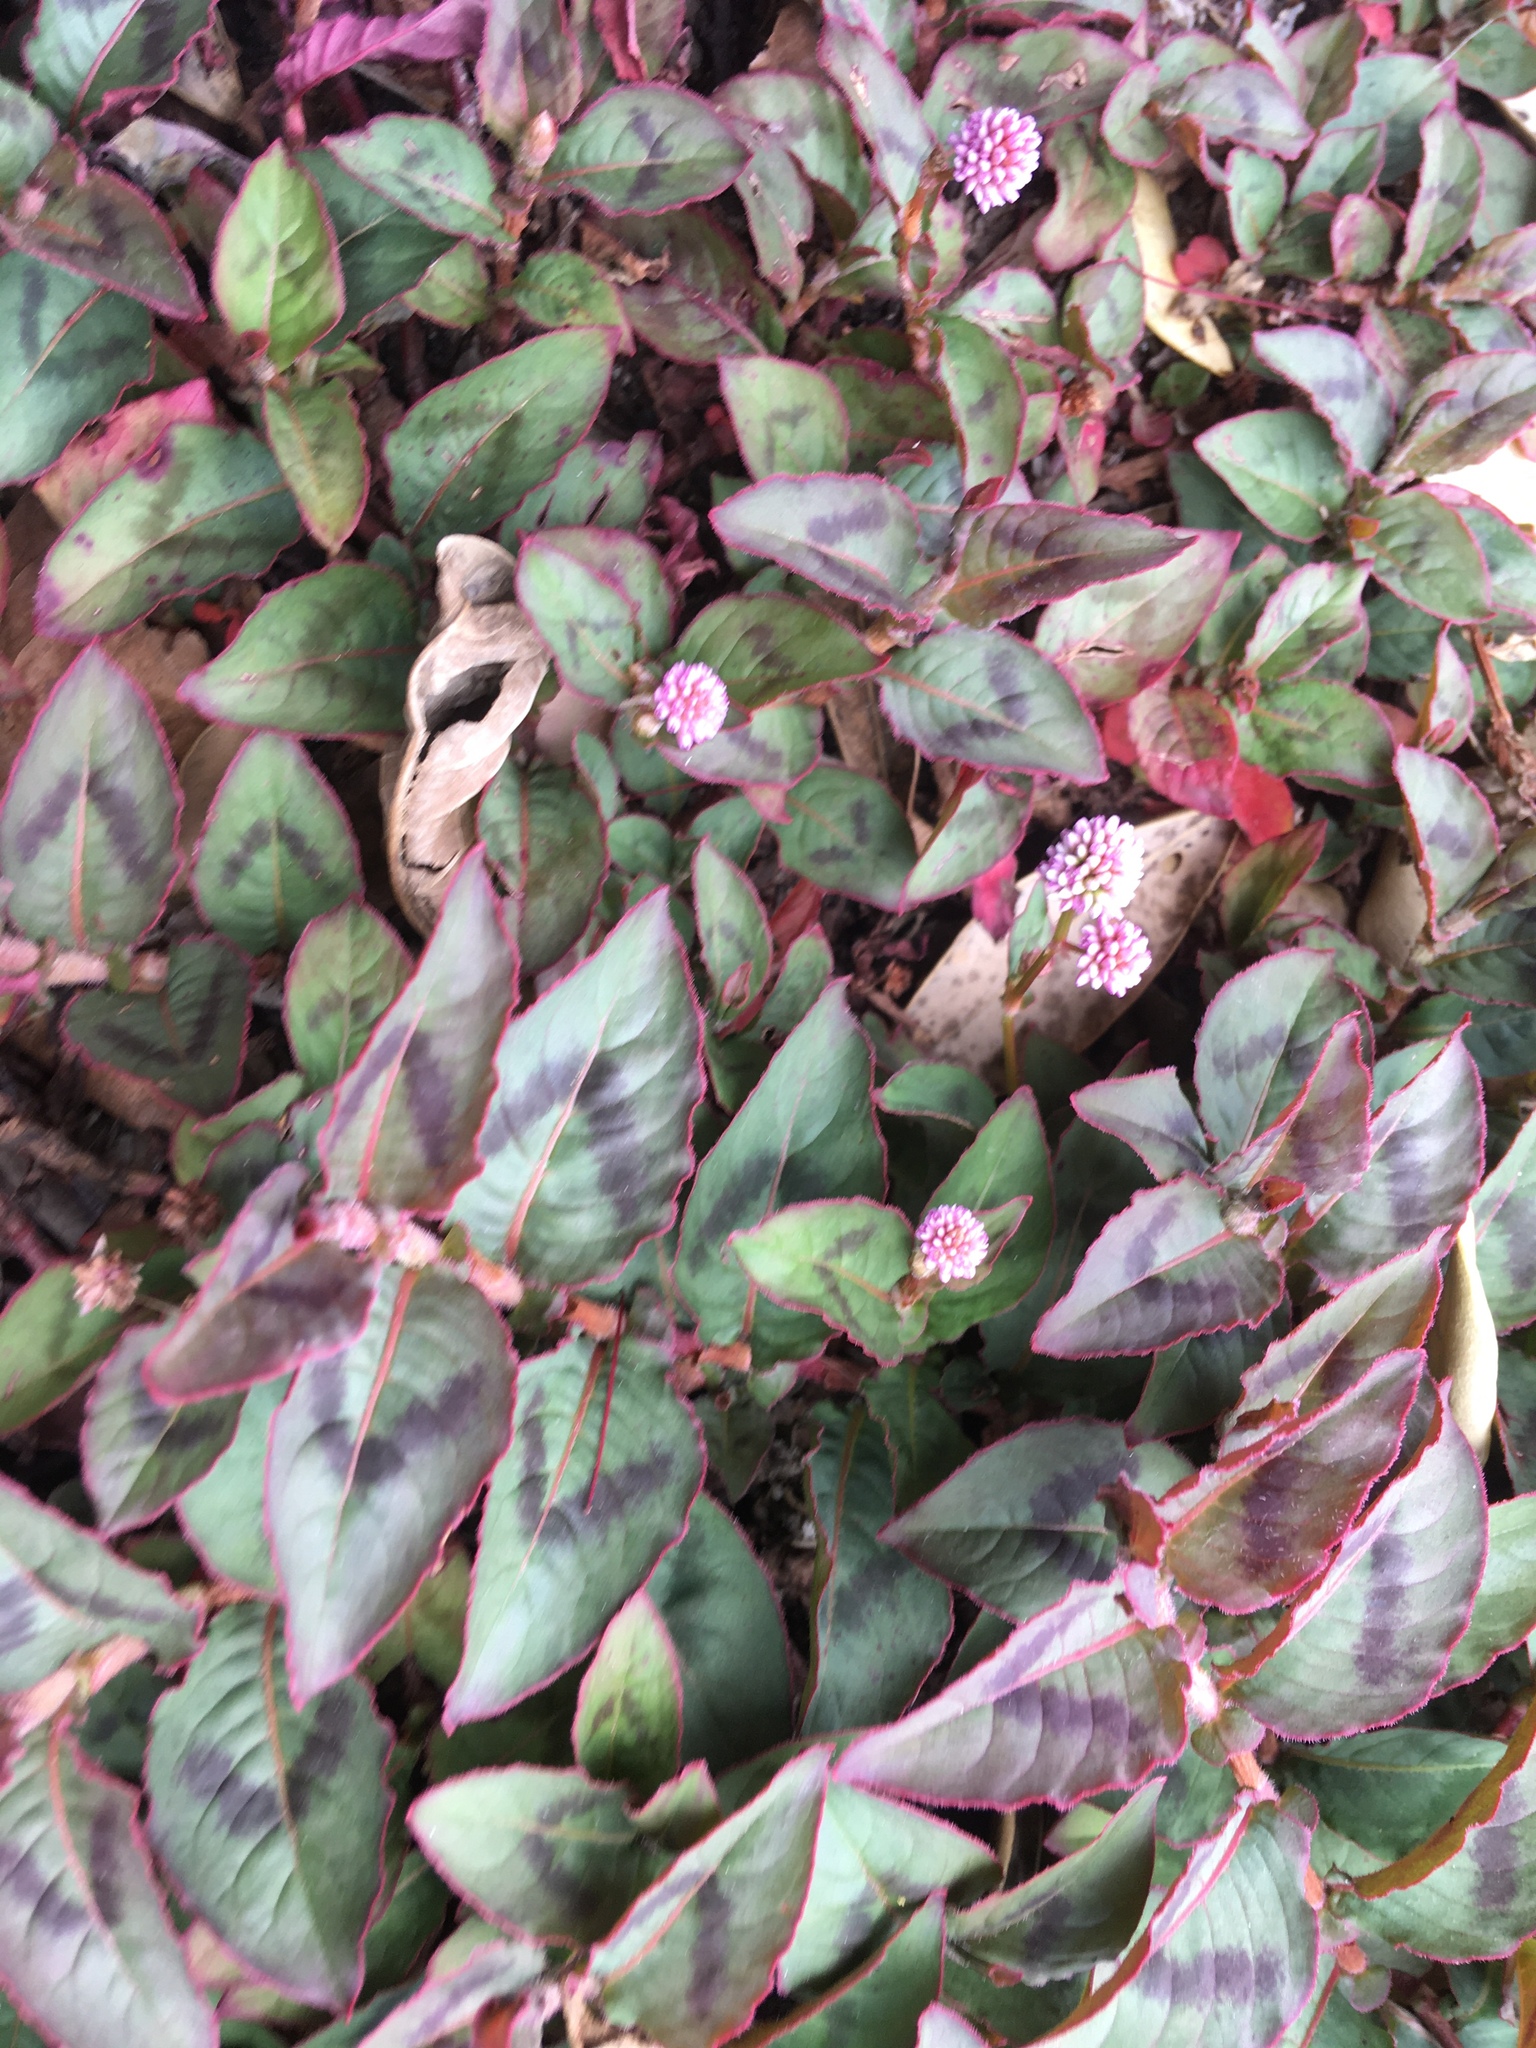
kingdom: Plantae
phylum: Tracheophyta
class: Magnoliopsida
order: Caryophyllales
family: Polygonaceae
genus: Persicaria
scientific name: Persicaria capitata
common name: Pinkhead smartweed
